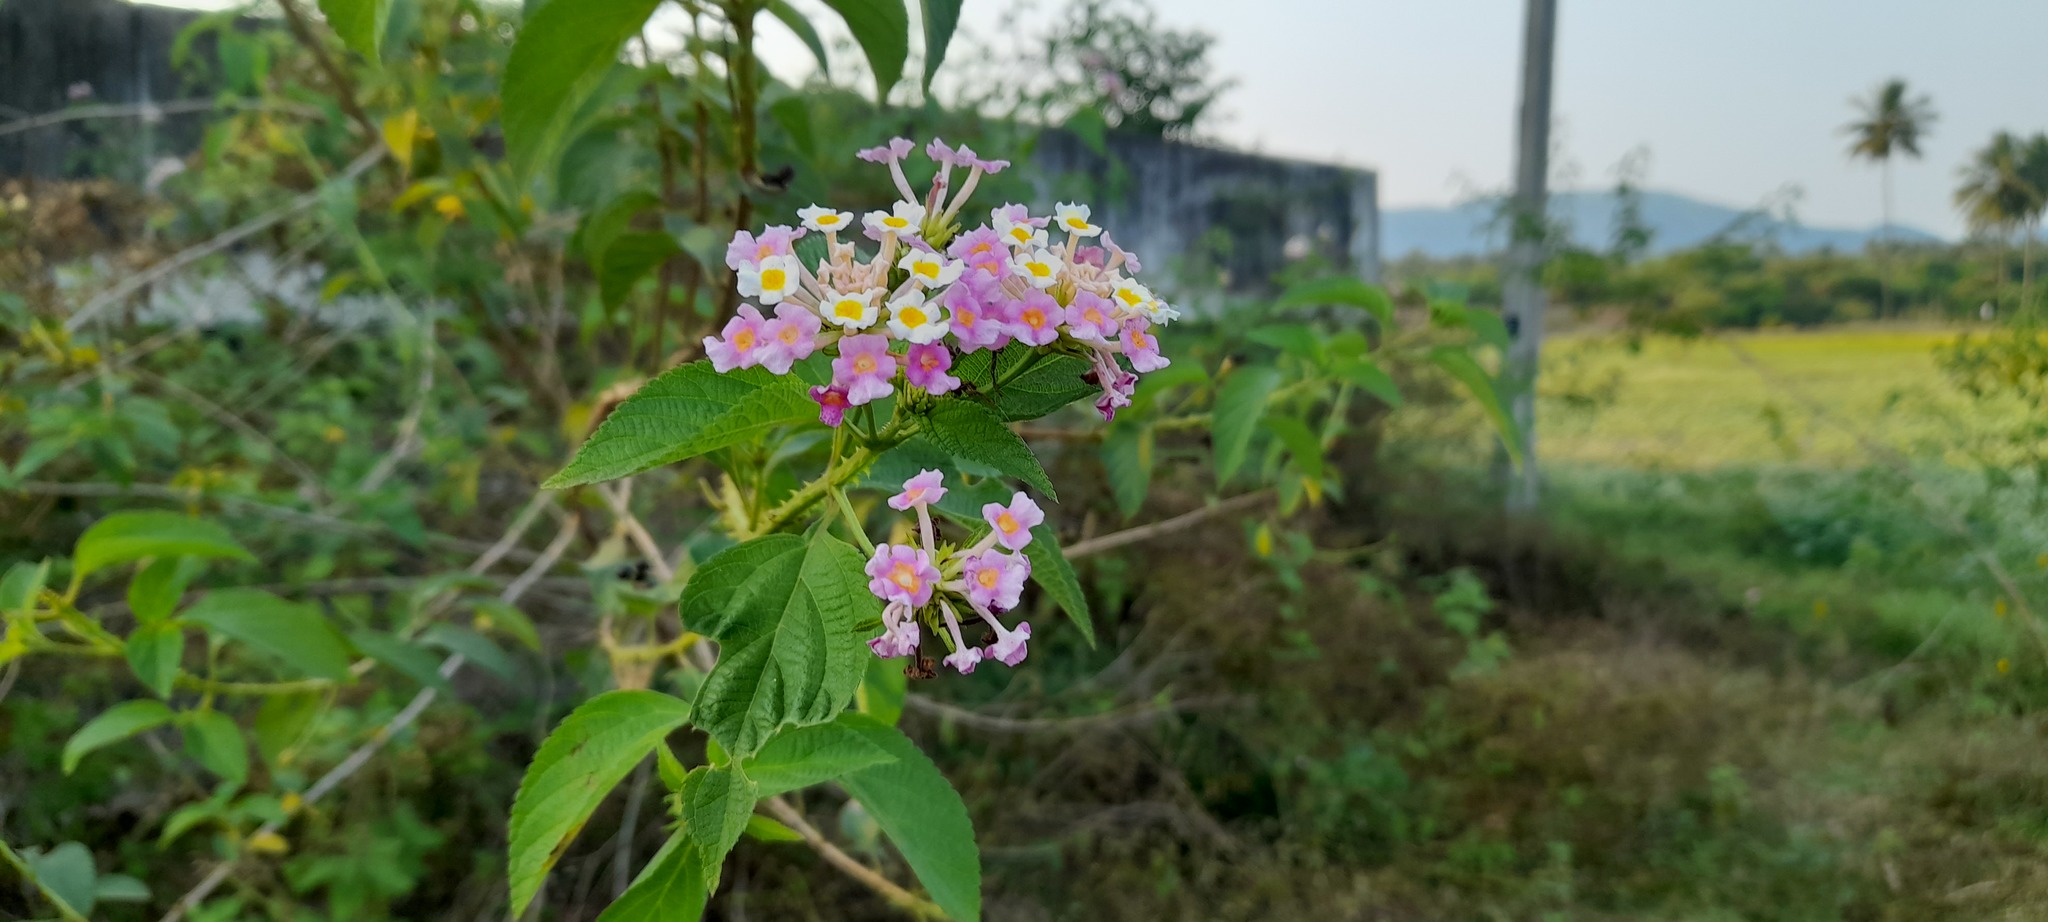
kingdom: Plantae
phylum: Tracheophyta
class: Magnoliopsida
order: Lamiales
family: Verbenaceae
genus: Lantana
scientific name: Lantana camara
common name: Lantana
